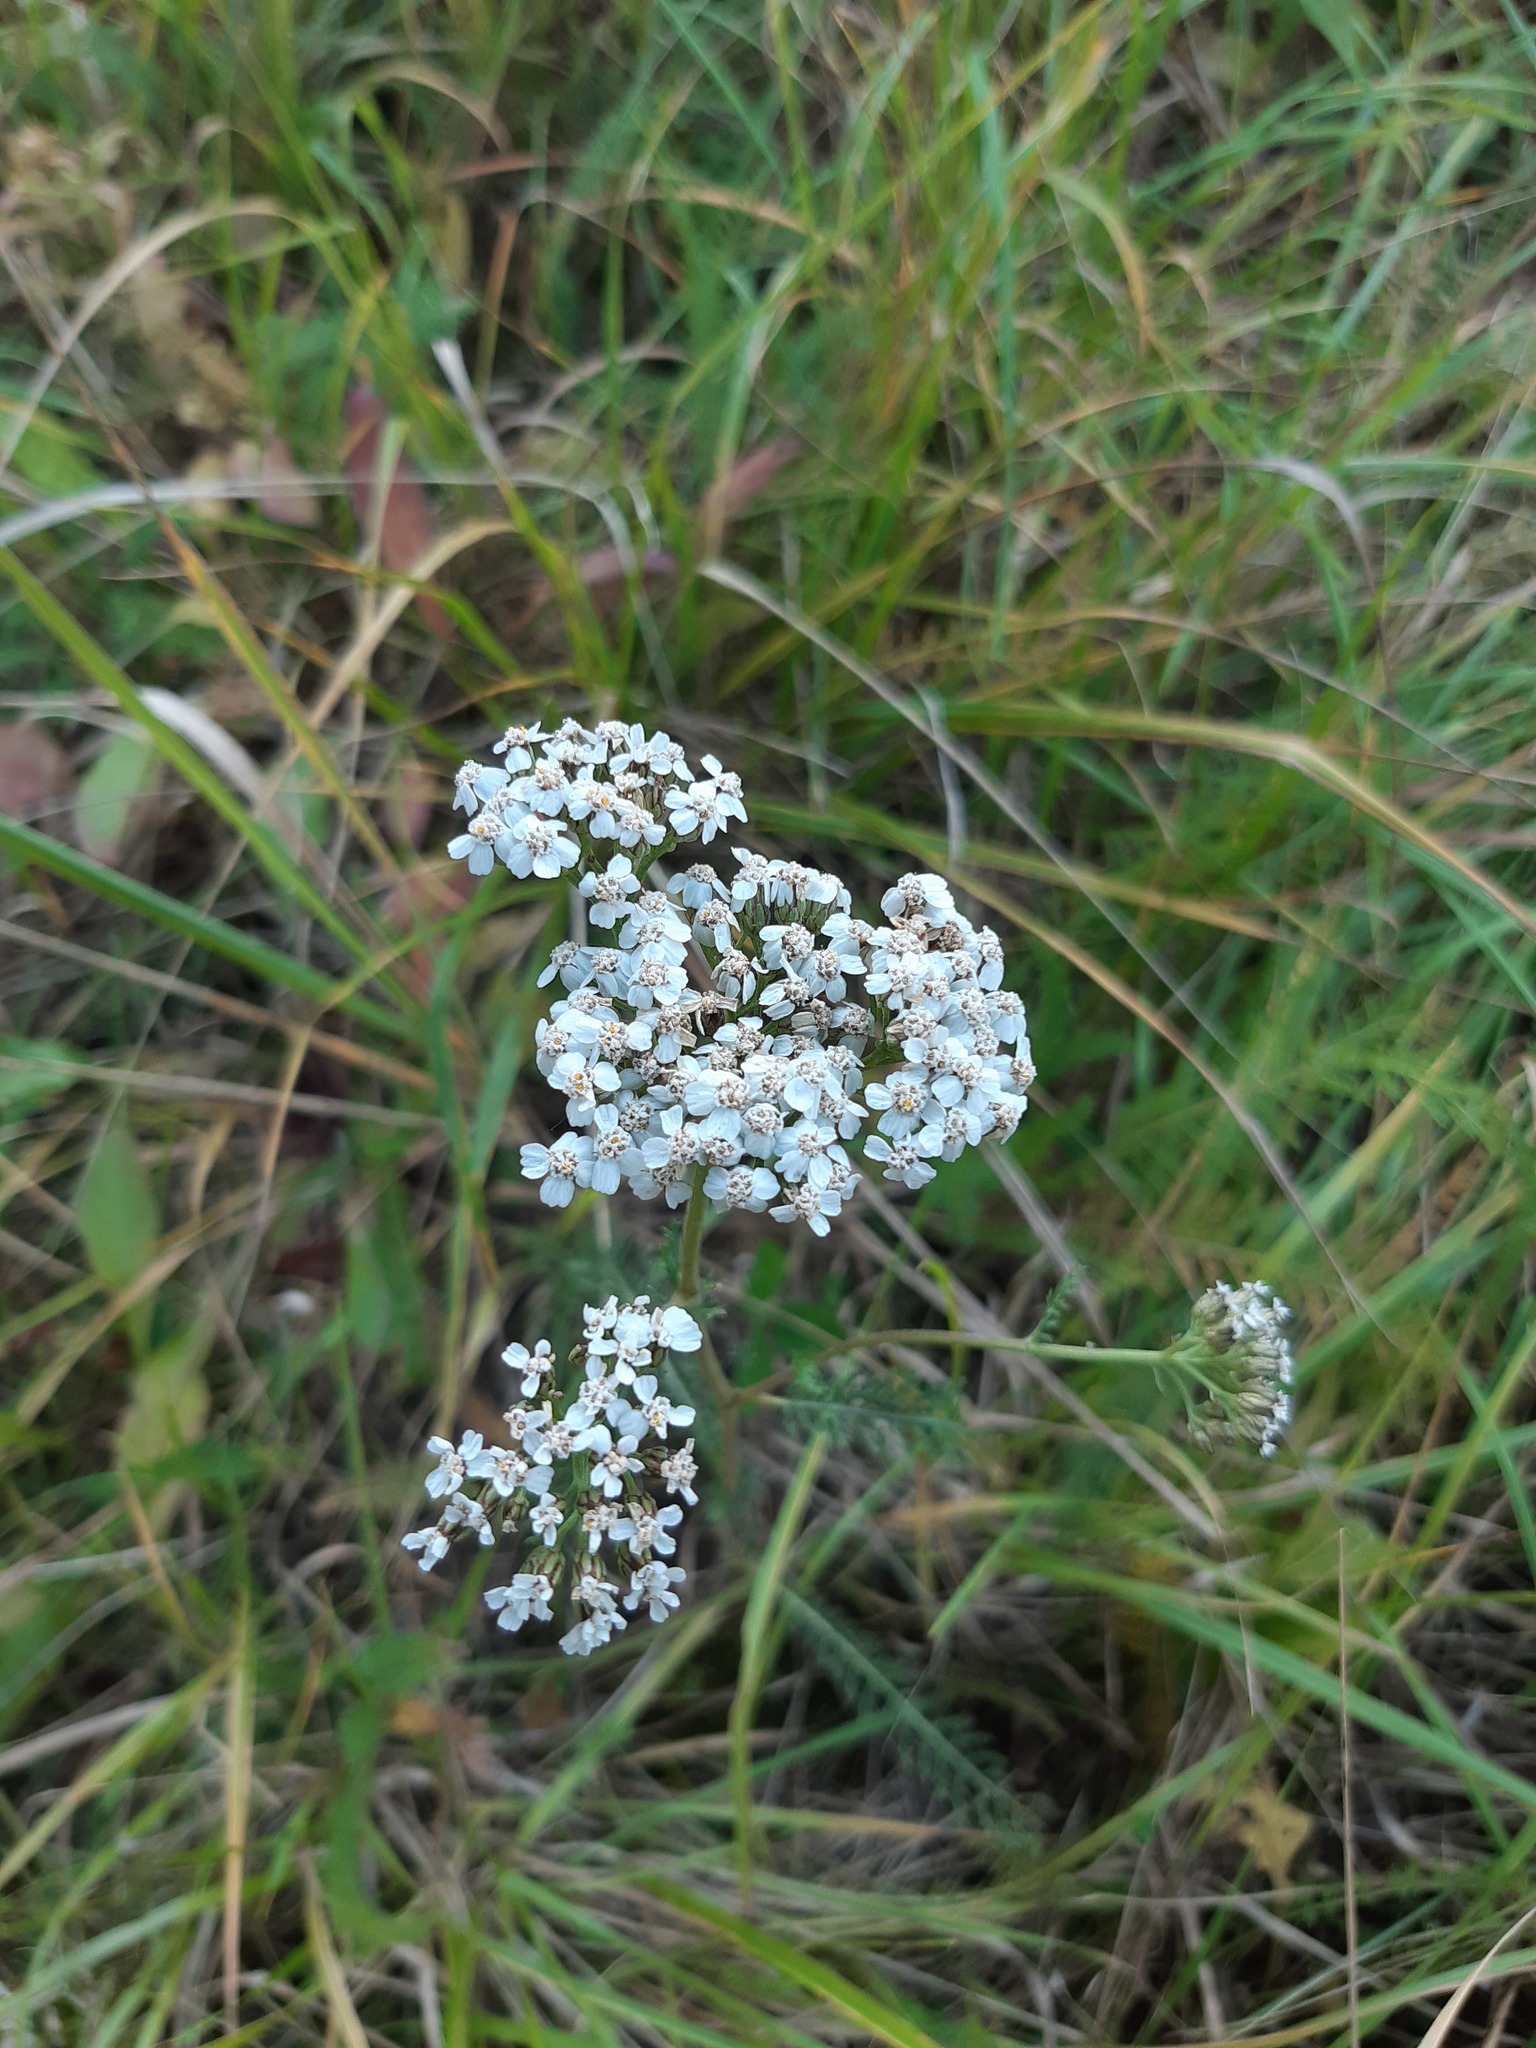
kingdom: Plantae
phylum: Tracheophyta
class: Magnoliopsida
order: Asterales
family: Asteraceae
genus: Achillea
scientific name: Achillea millefolium
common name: Yarrow
